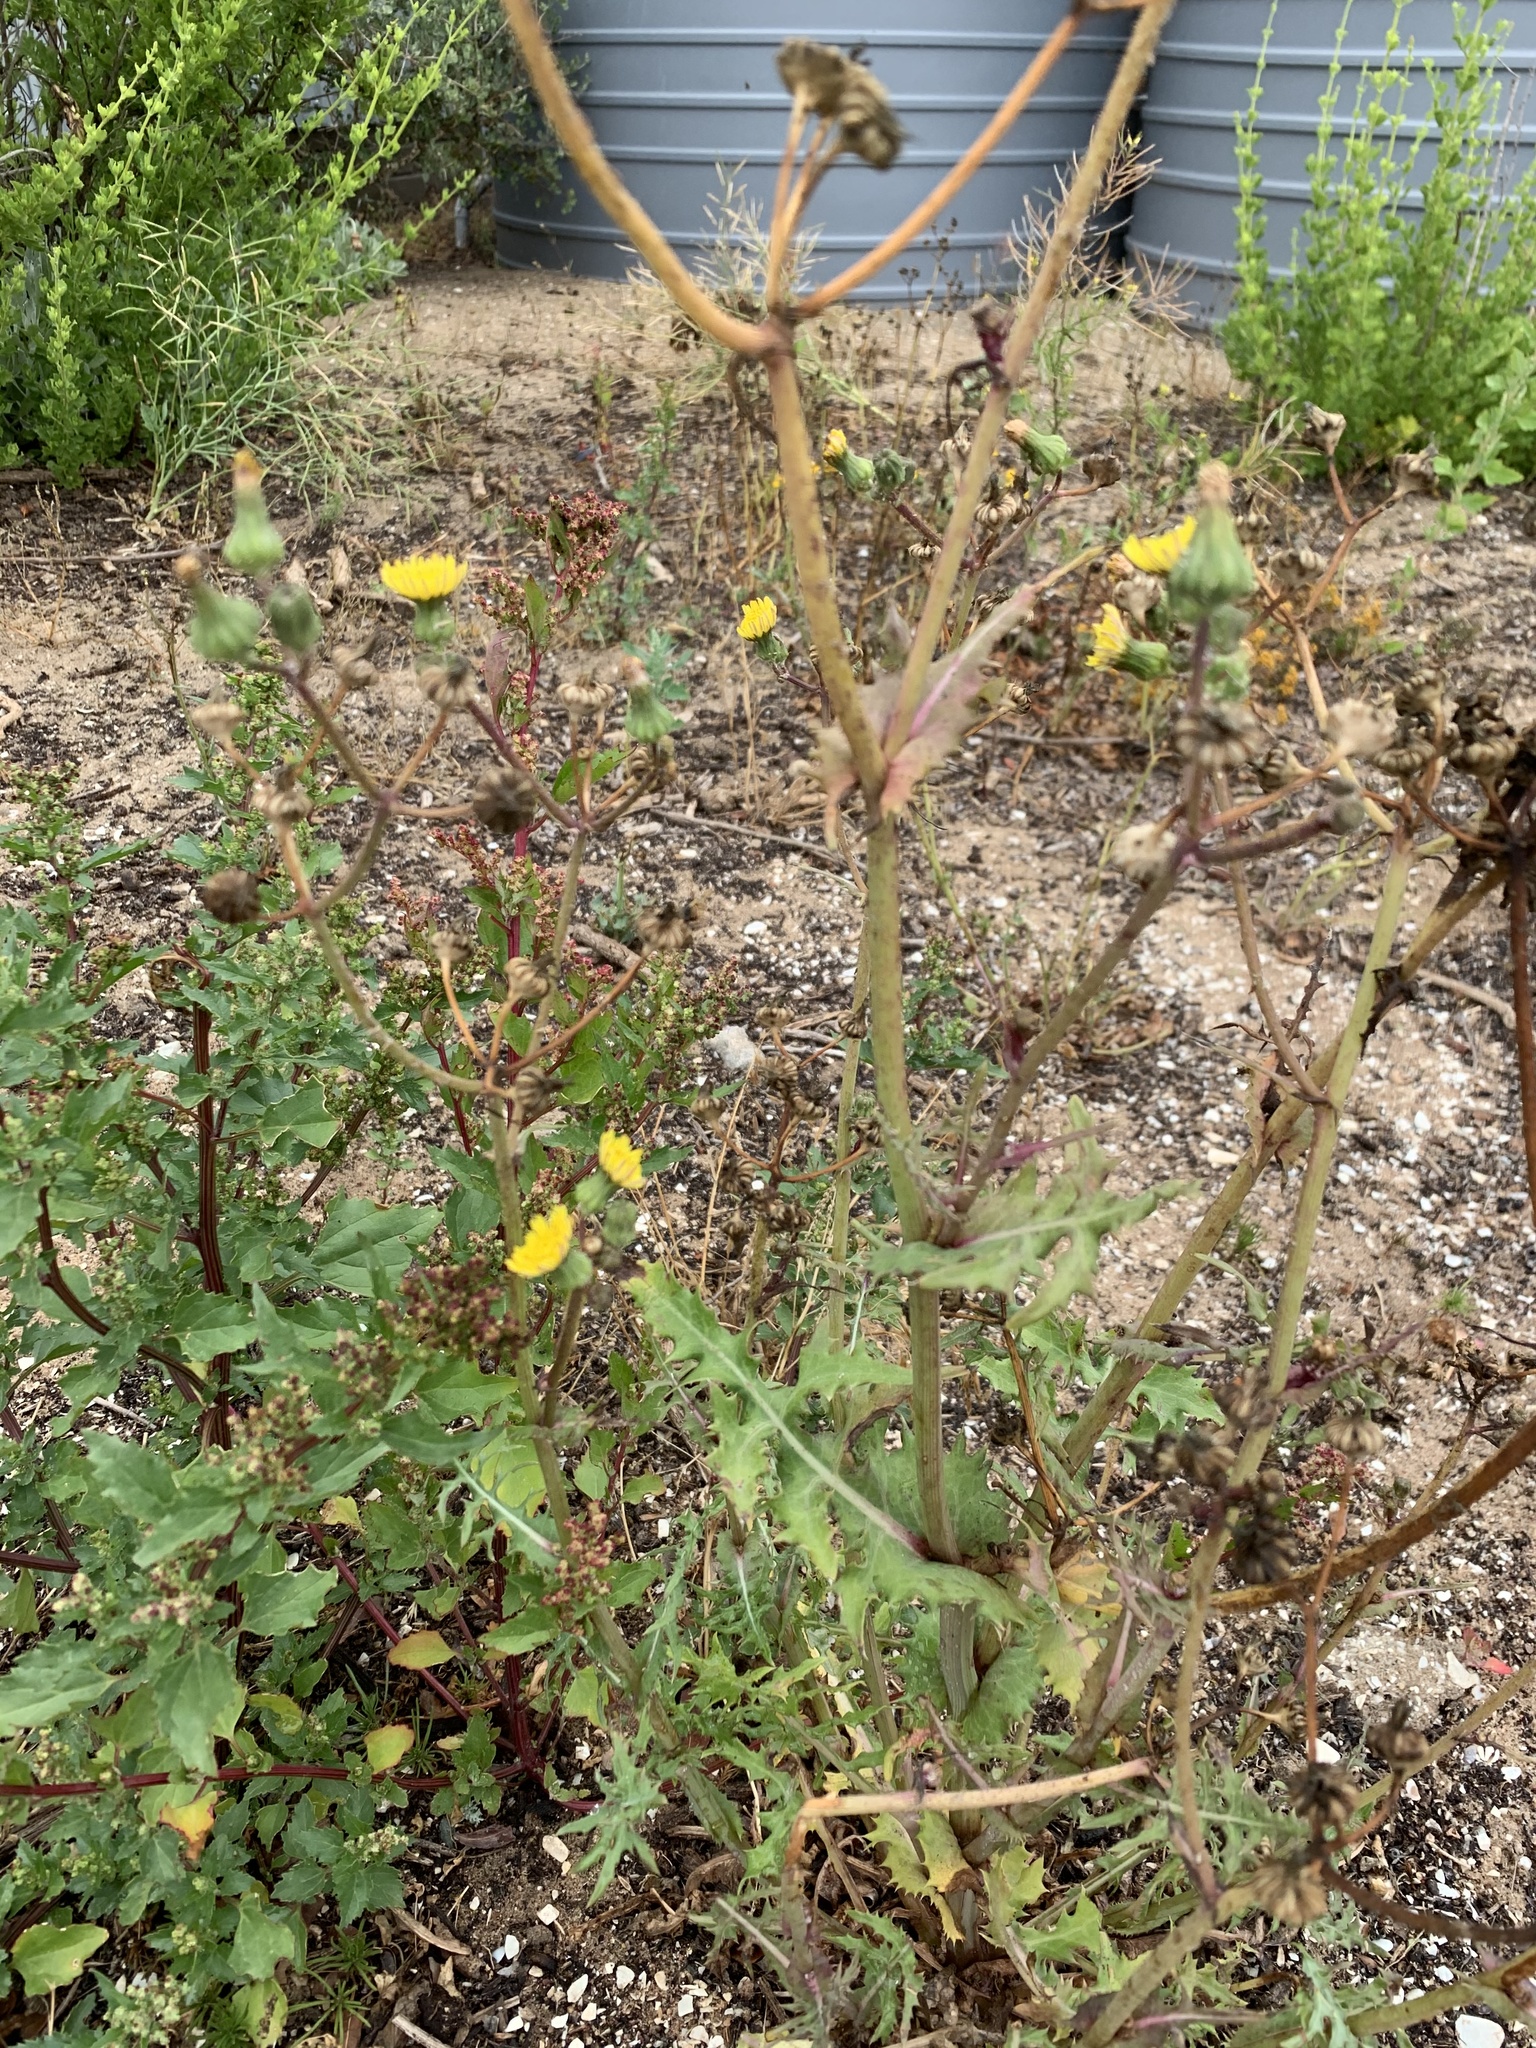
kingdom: Plantae
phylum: Tracheophyta
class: Magnoliopsida
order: Asterales
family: Asteraceae
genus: Sonchus
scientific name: Sonchus oleraceus
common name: Common sowthistle
